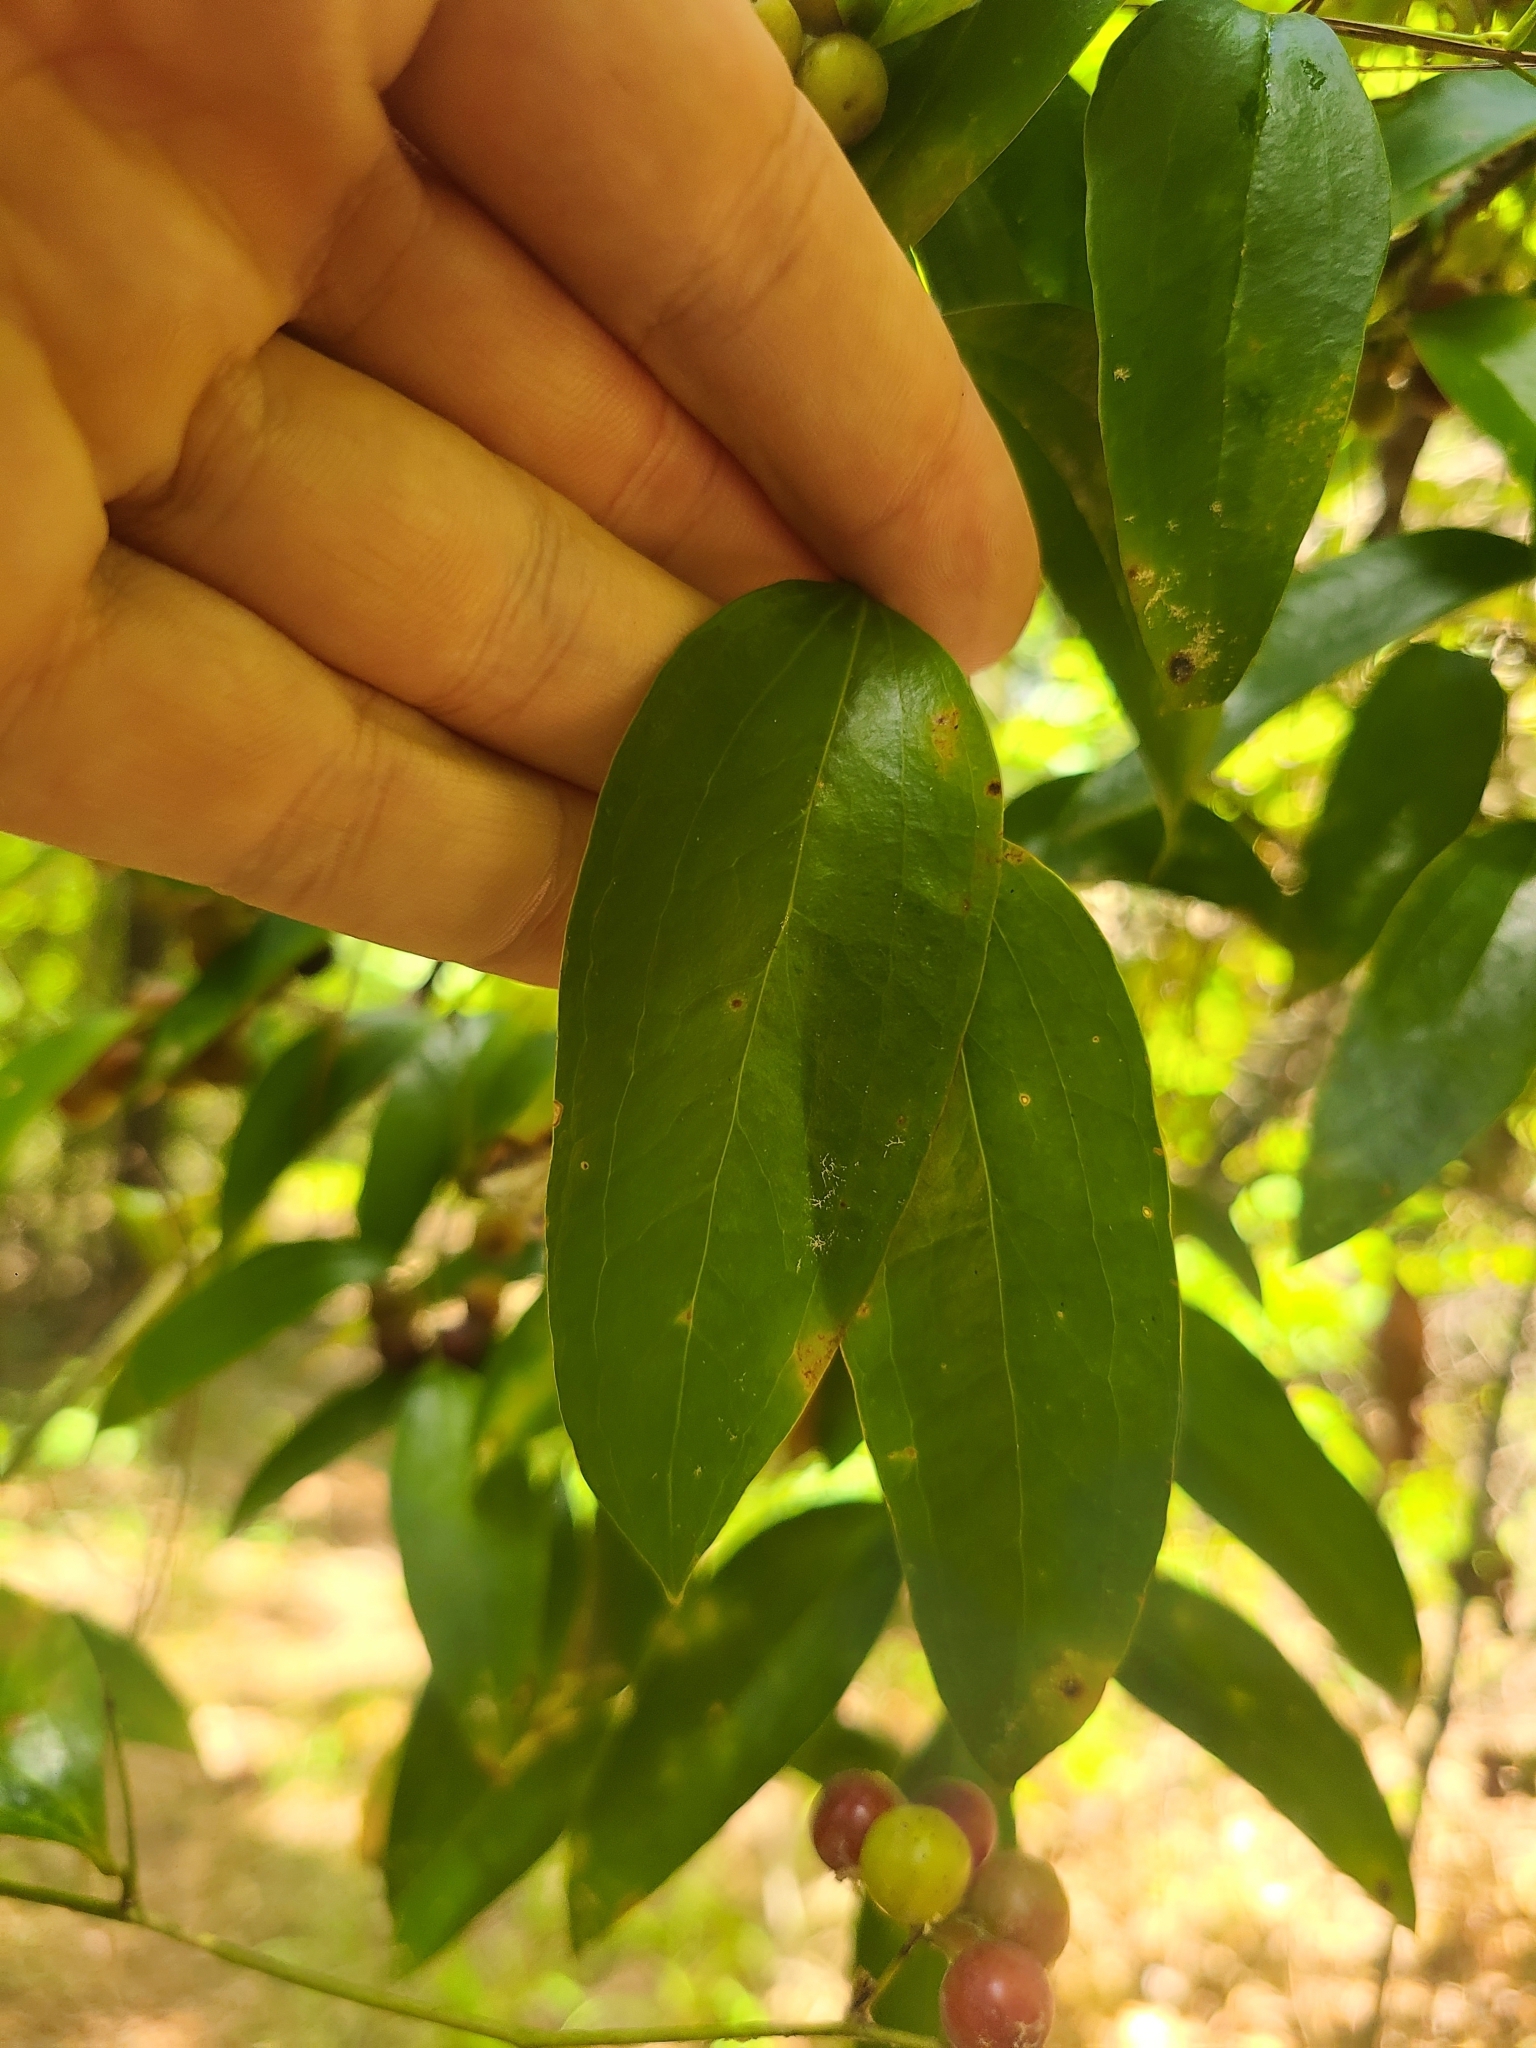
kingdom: Plantae
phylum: Tracheophyta
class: Liliopsida
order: Liliales
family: Smilacaceae
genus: Smilax
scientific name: Smilax maritima
